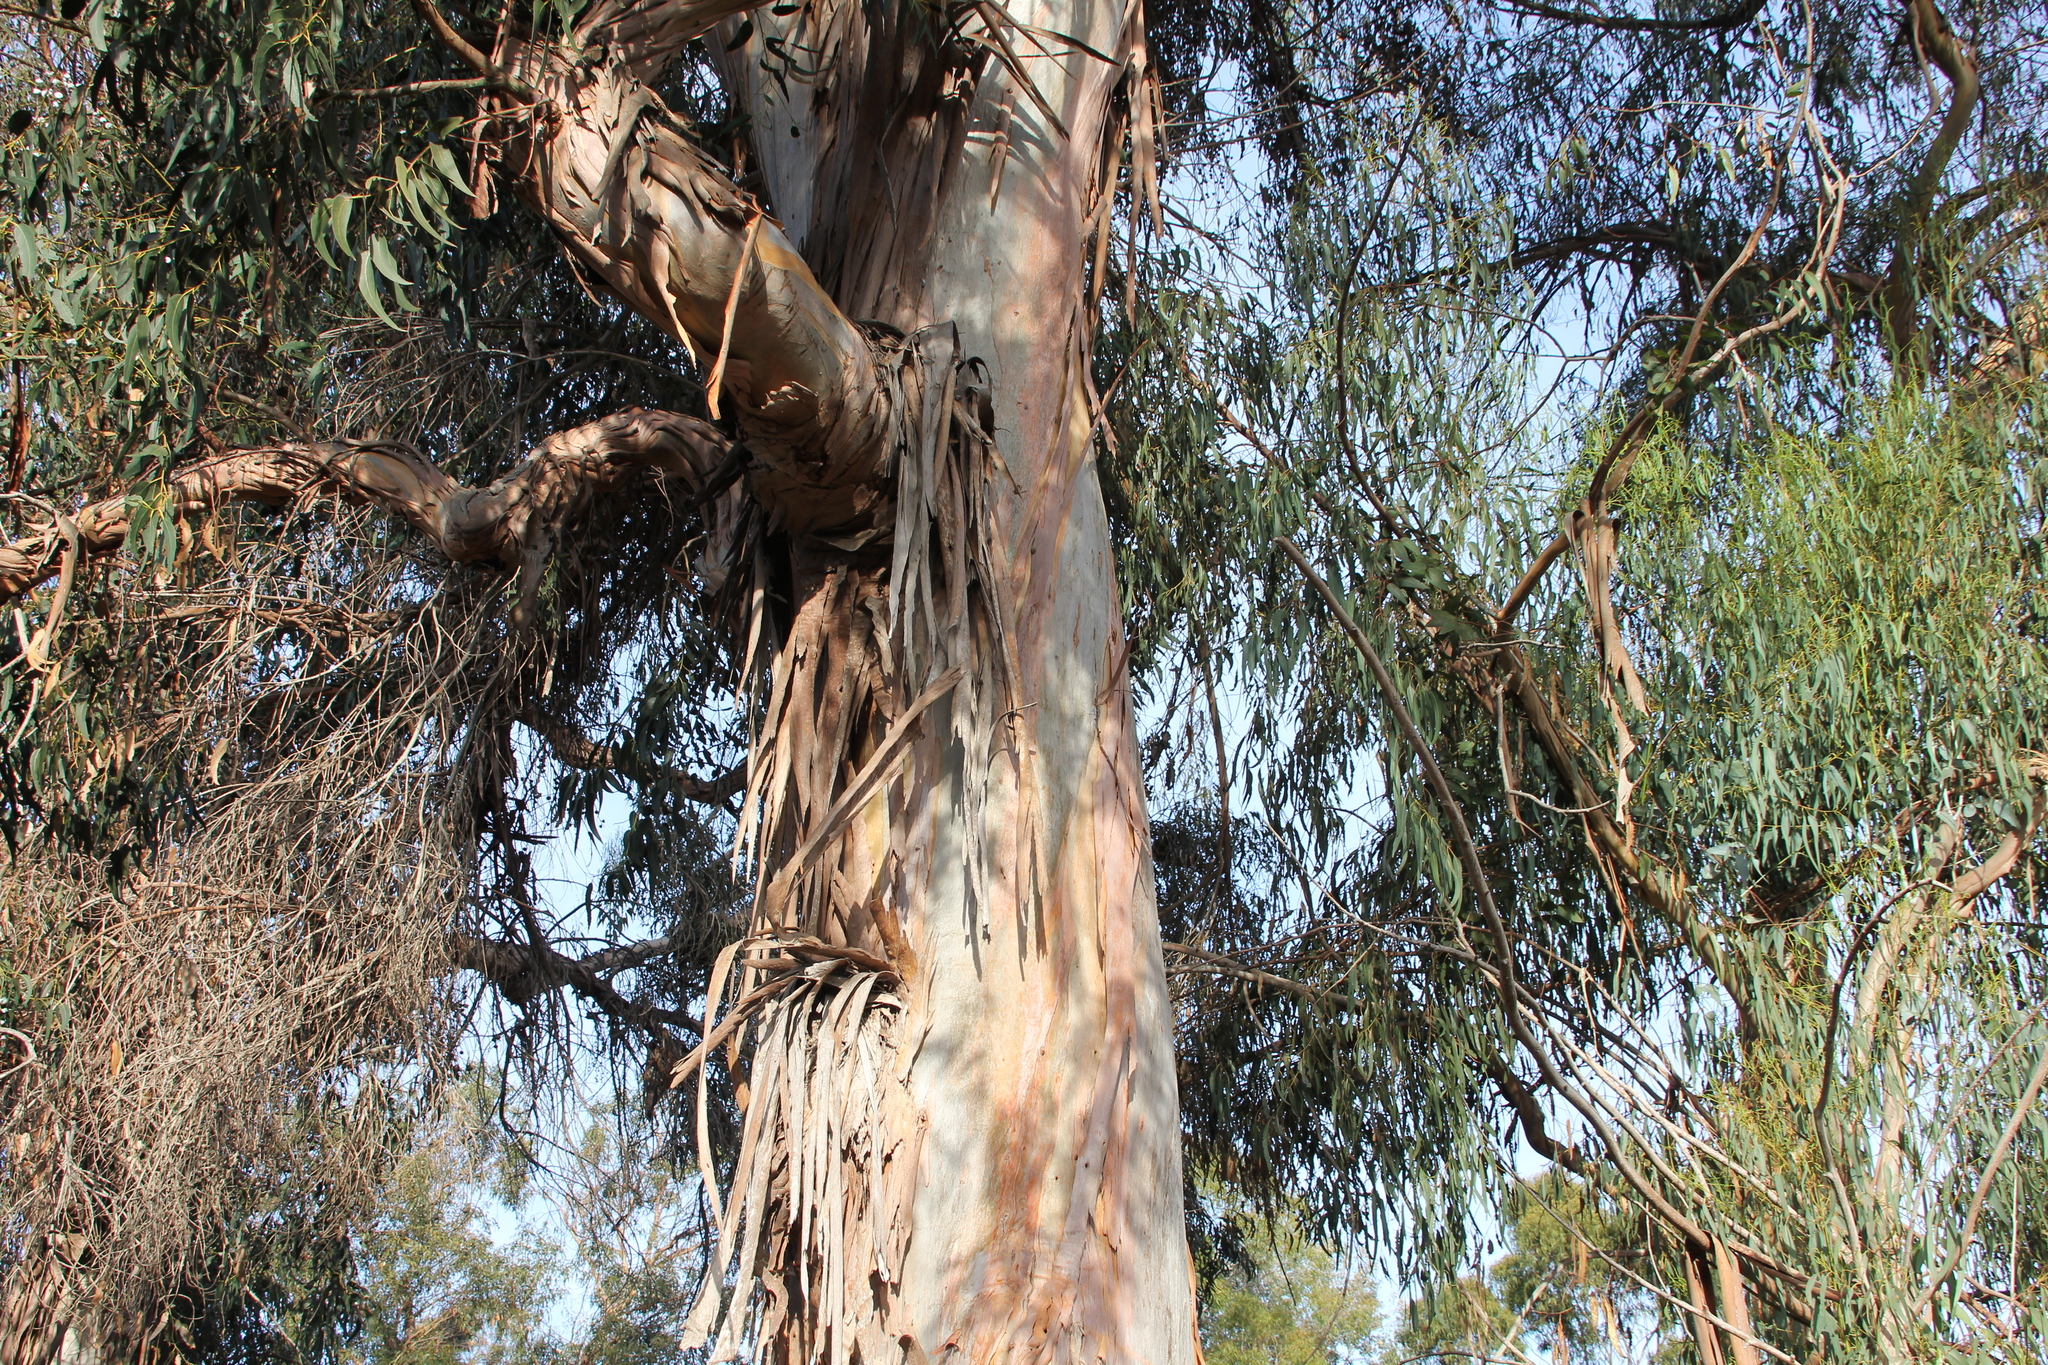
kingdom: Plantae
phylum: Tracheophyta
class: Magnoliopsida
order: Myrtales
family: Myrtaceae
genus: Eucalyptus
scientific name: Eucalyptus globulus
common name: Southern blue-gum
